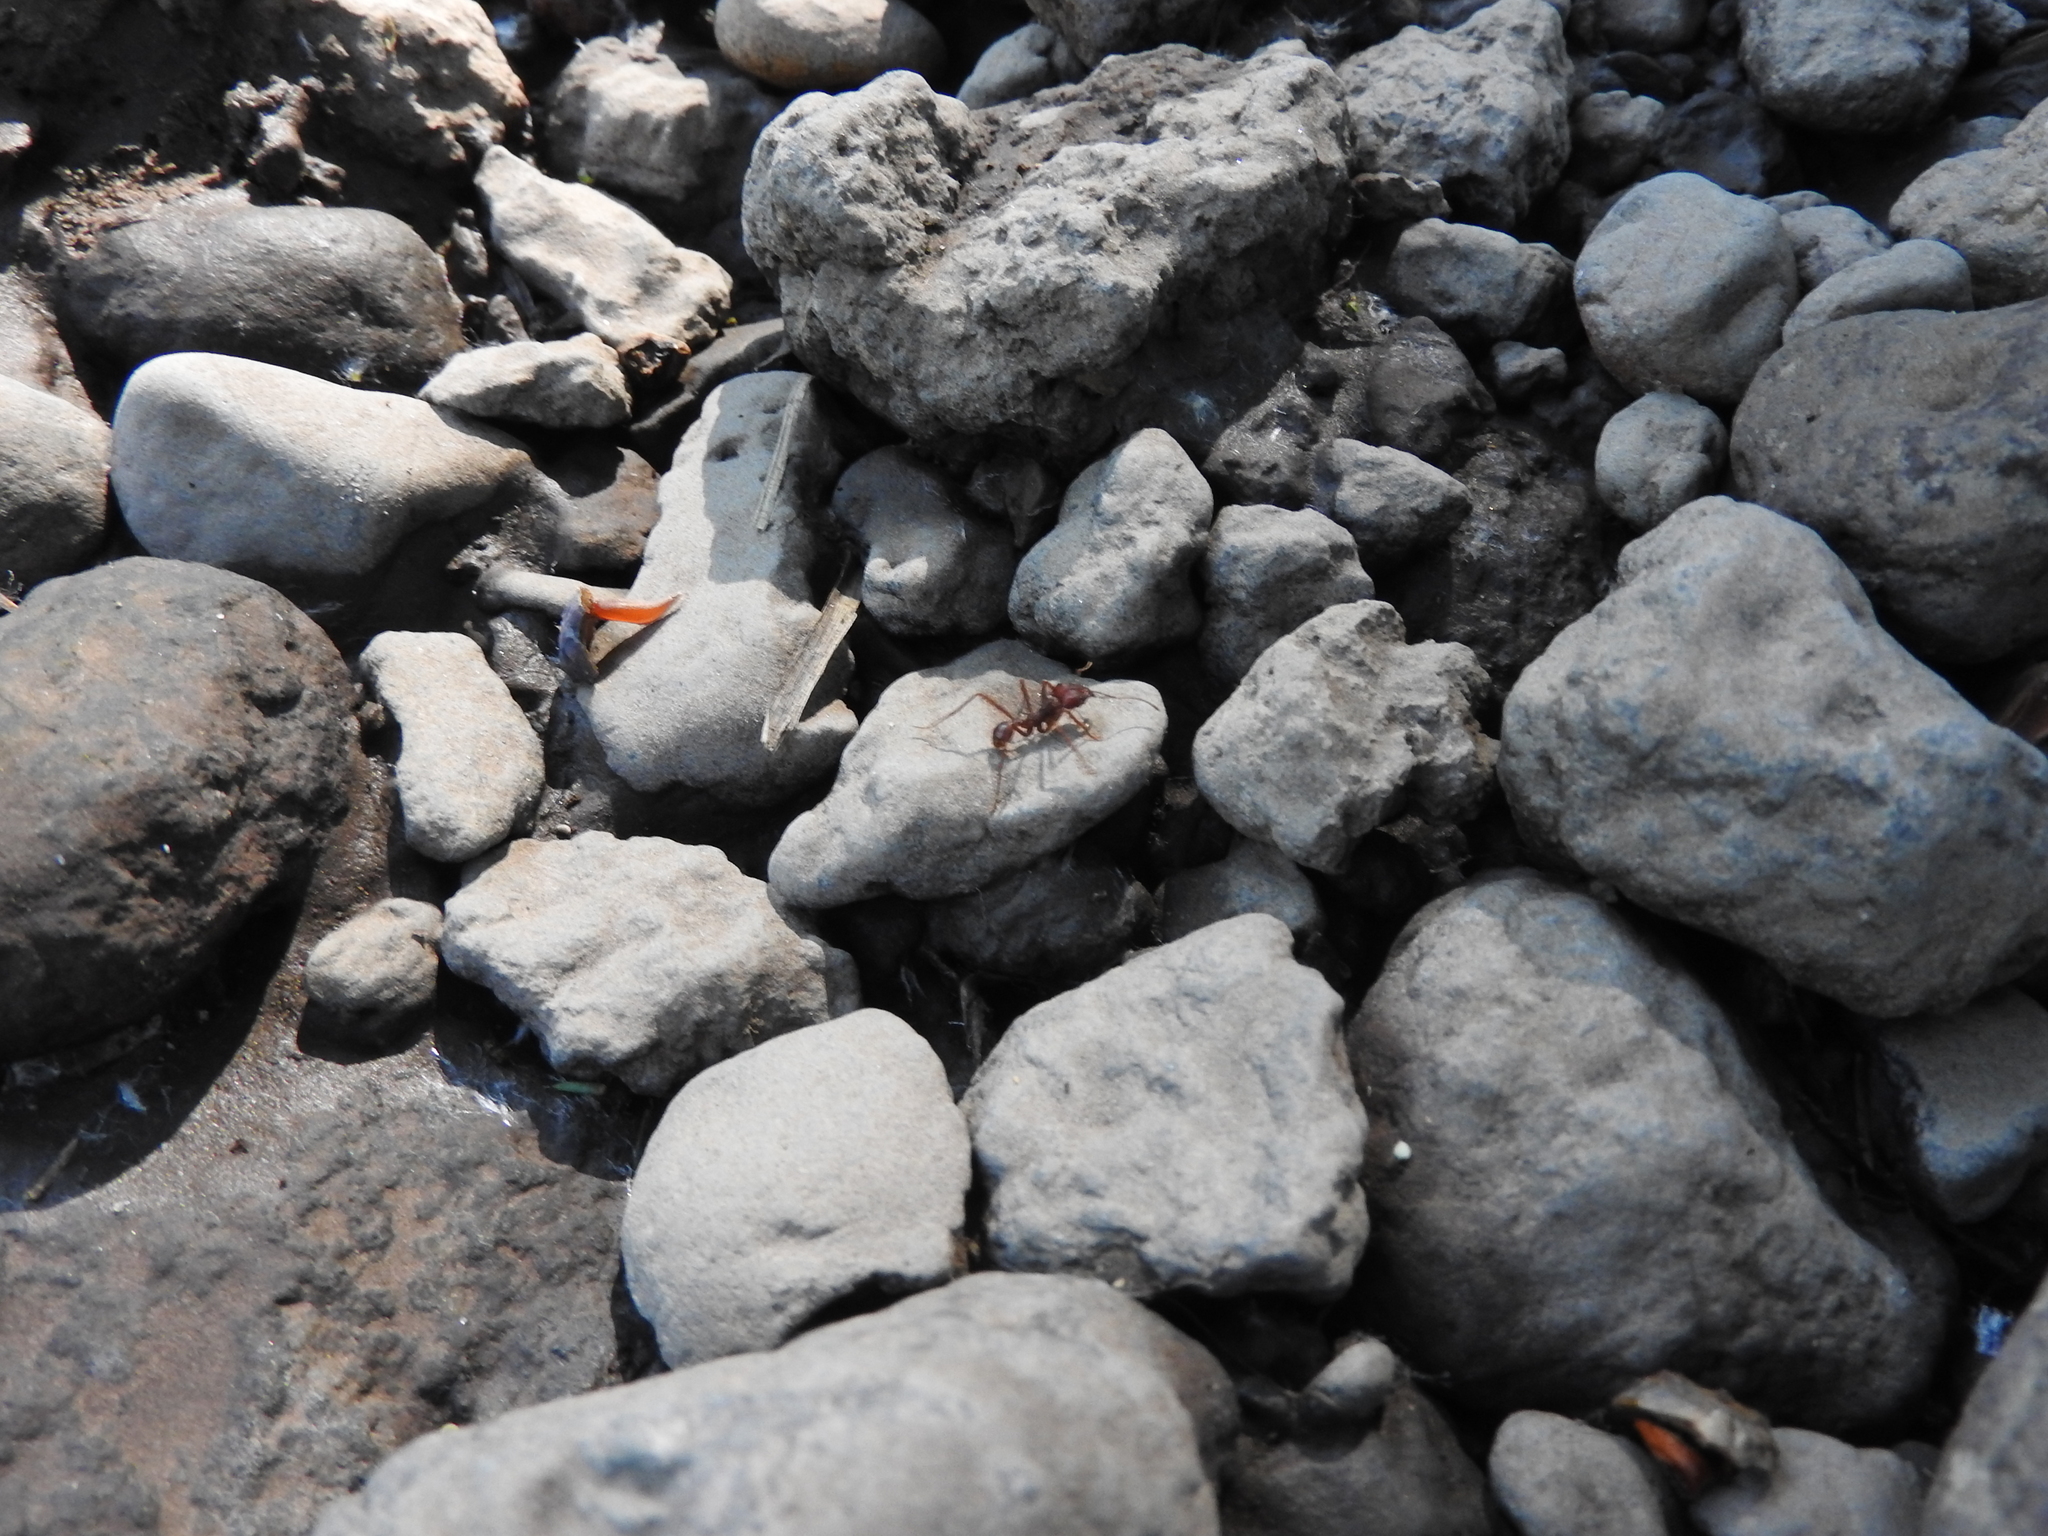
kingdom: Animalia
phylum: Arthropoda
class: Insecta
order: Hymenoptera
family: Formicidae
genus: Atta
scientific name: Atta mexicana
